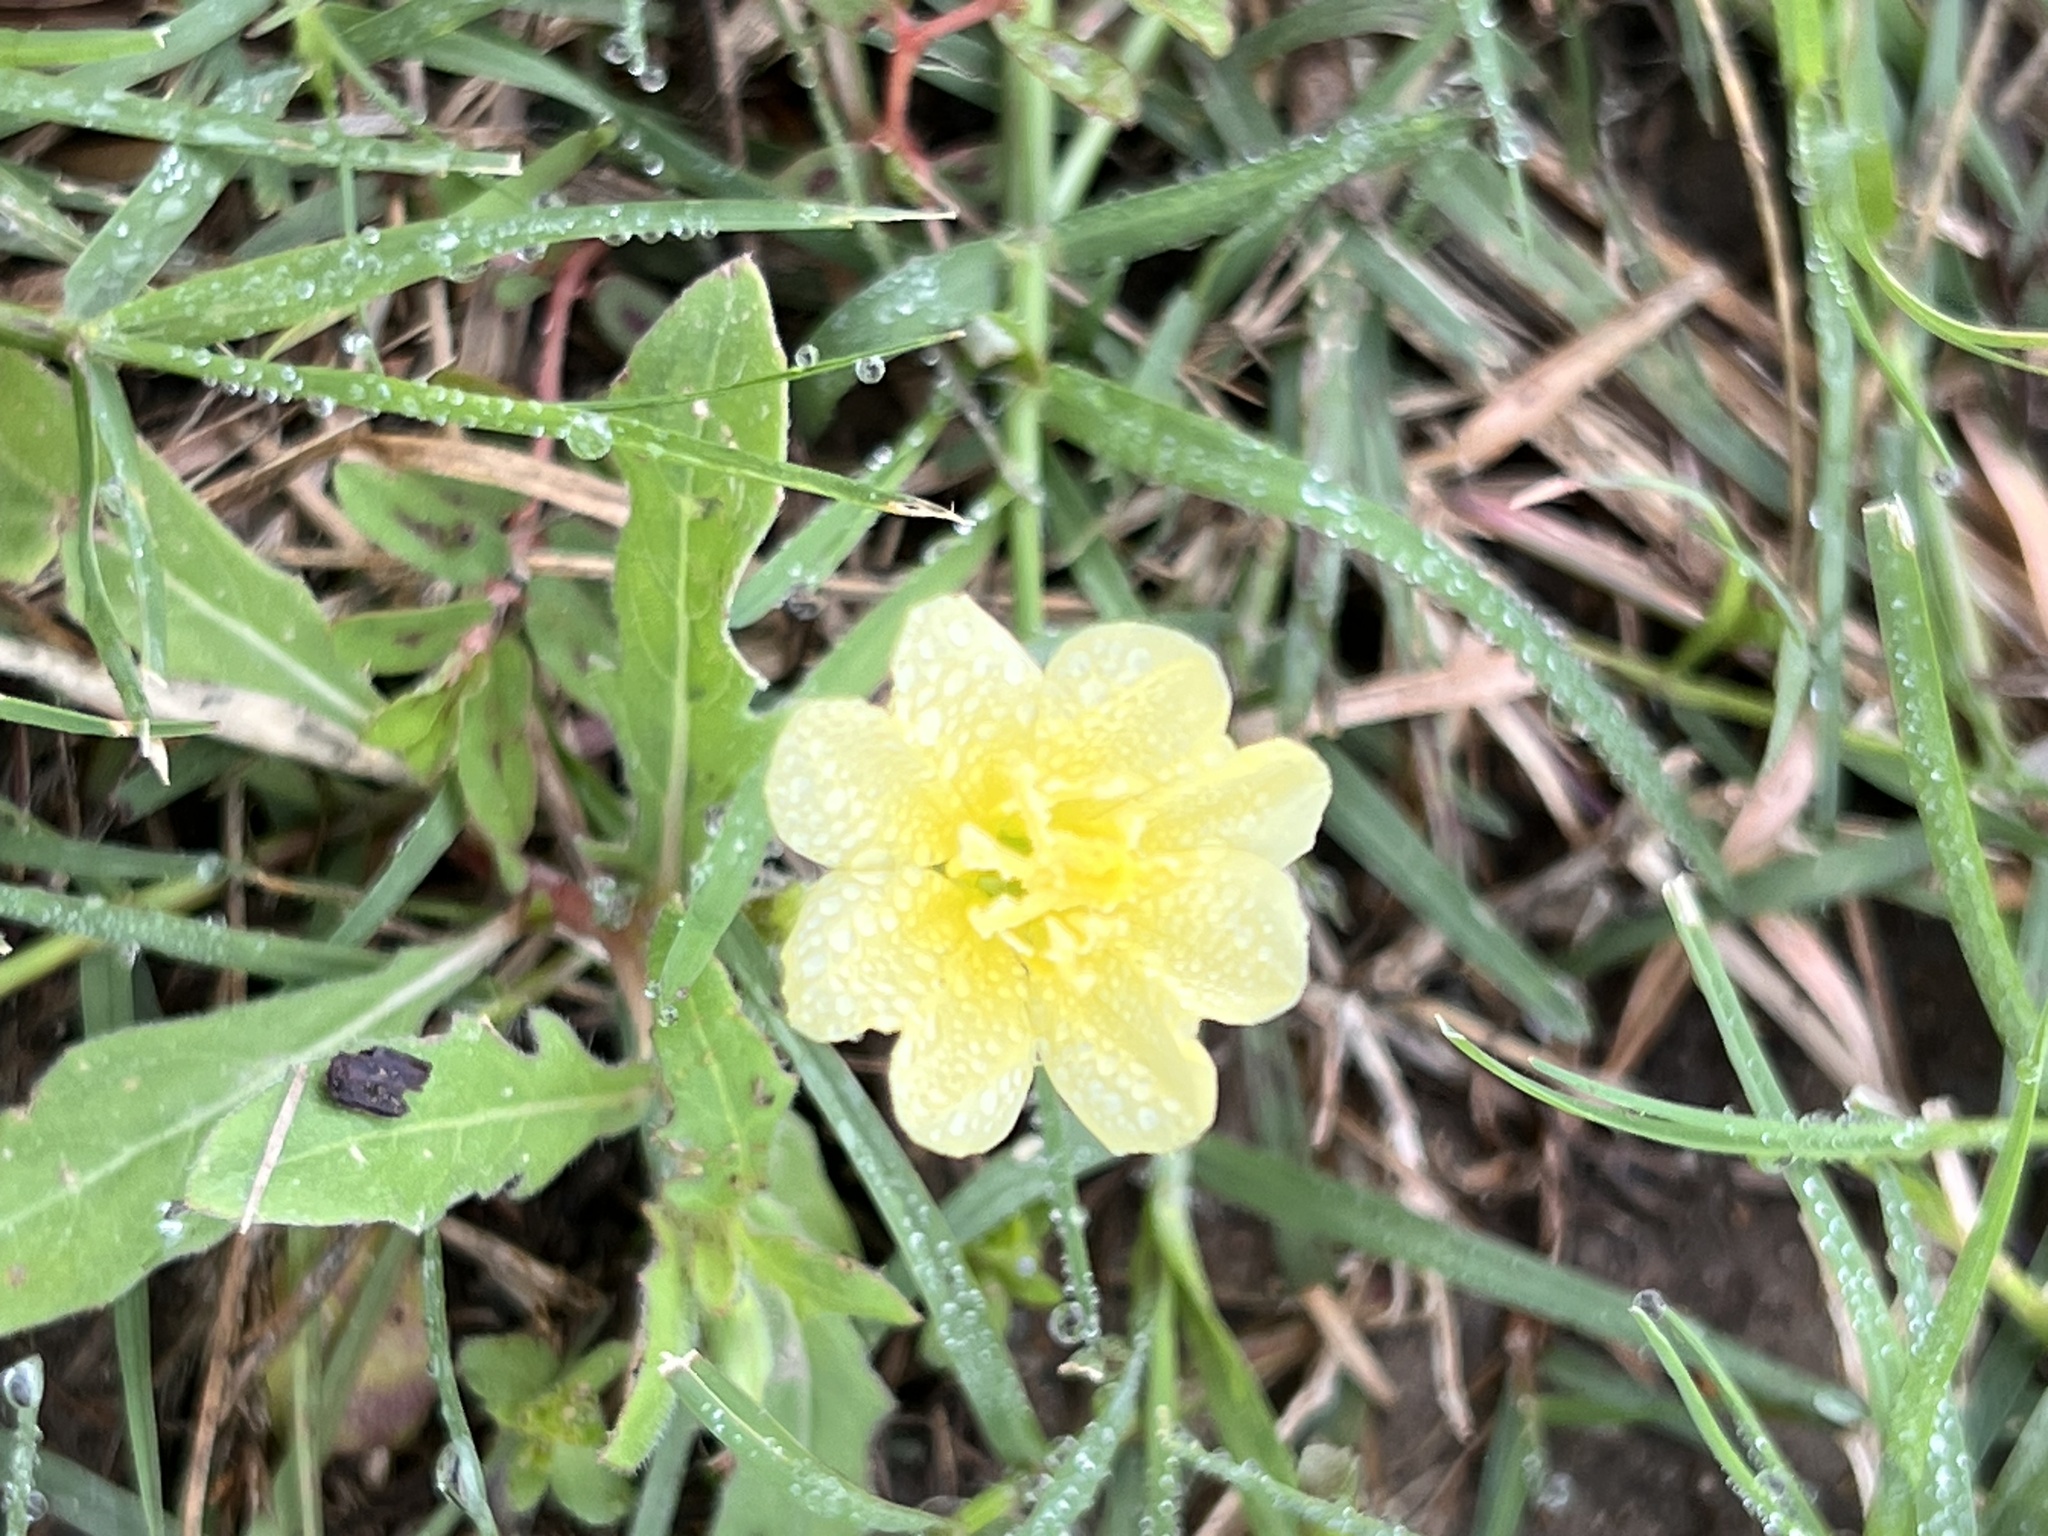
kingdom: Plantae
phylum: Tracheophyta
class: Magnoliopsida
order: Myrtales
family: Onagraceae
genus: Oenothera
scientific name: Oenothera laciniata
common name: Cut-leaved evening-primrose
